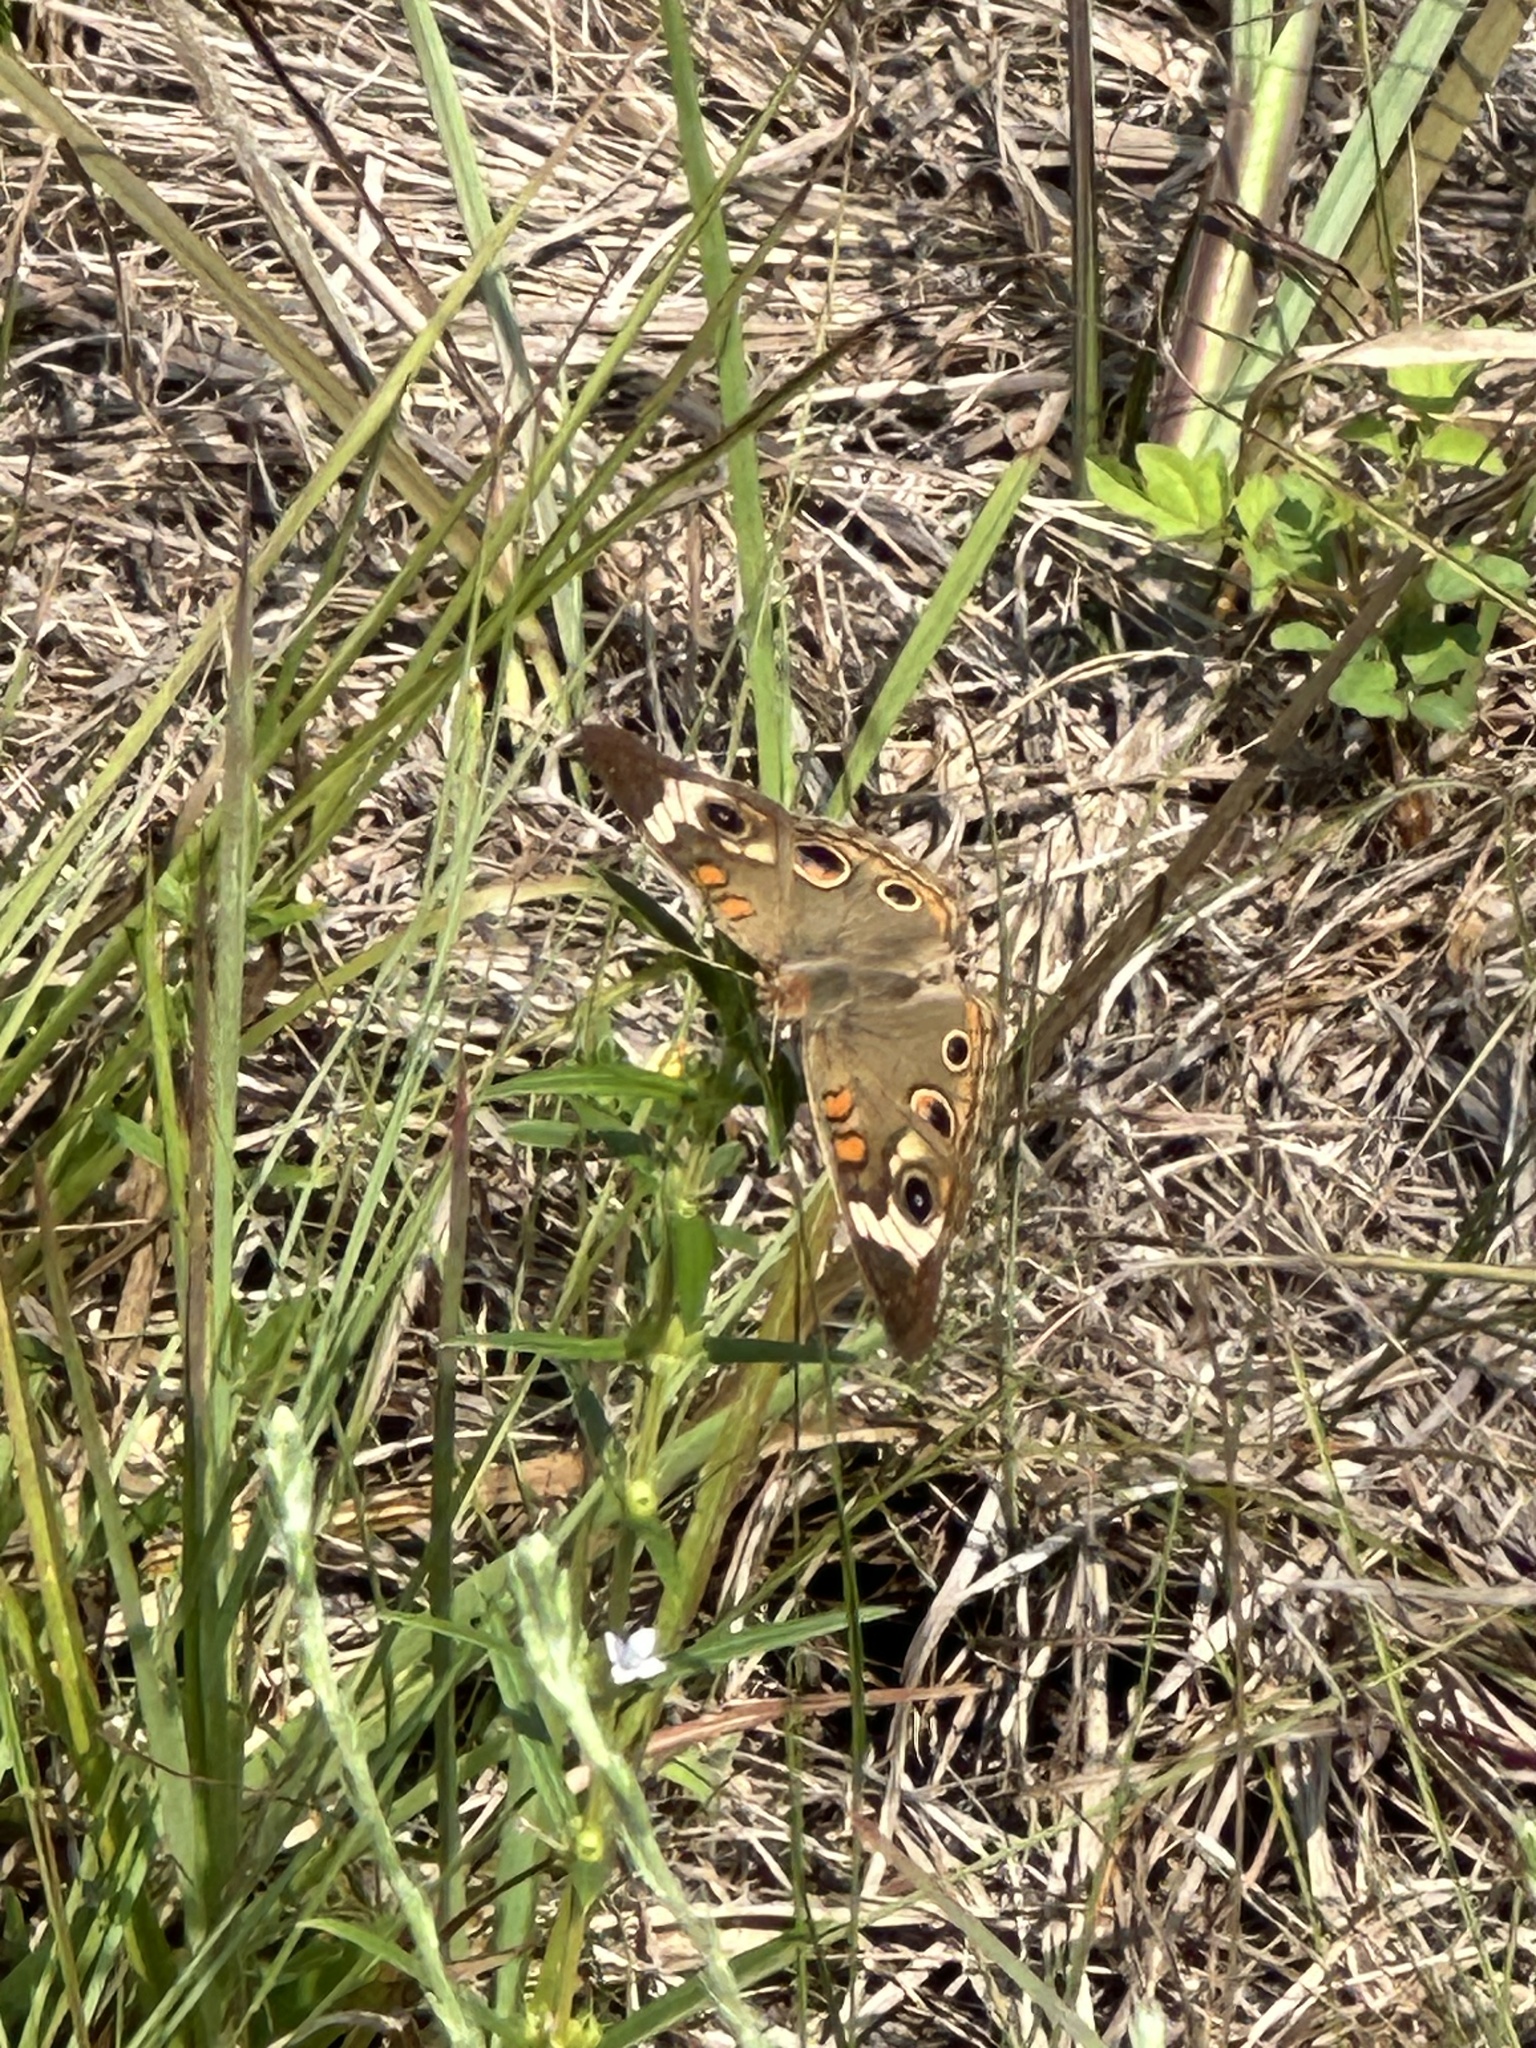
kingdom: Animalia
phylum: Arthropoda
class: Insecta
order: Lepidoptera
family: Nymphalidae
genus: Junonia
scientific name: Junonia coenia
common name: Common buckeye
